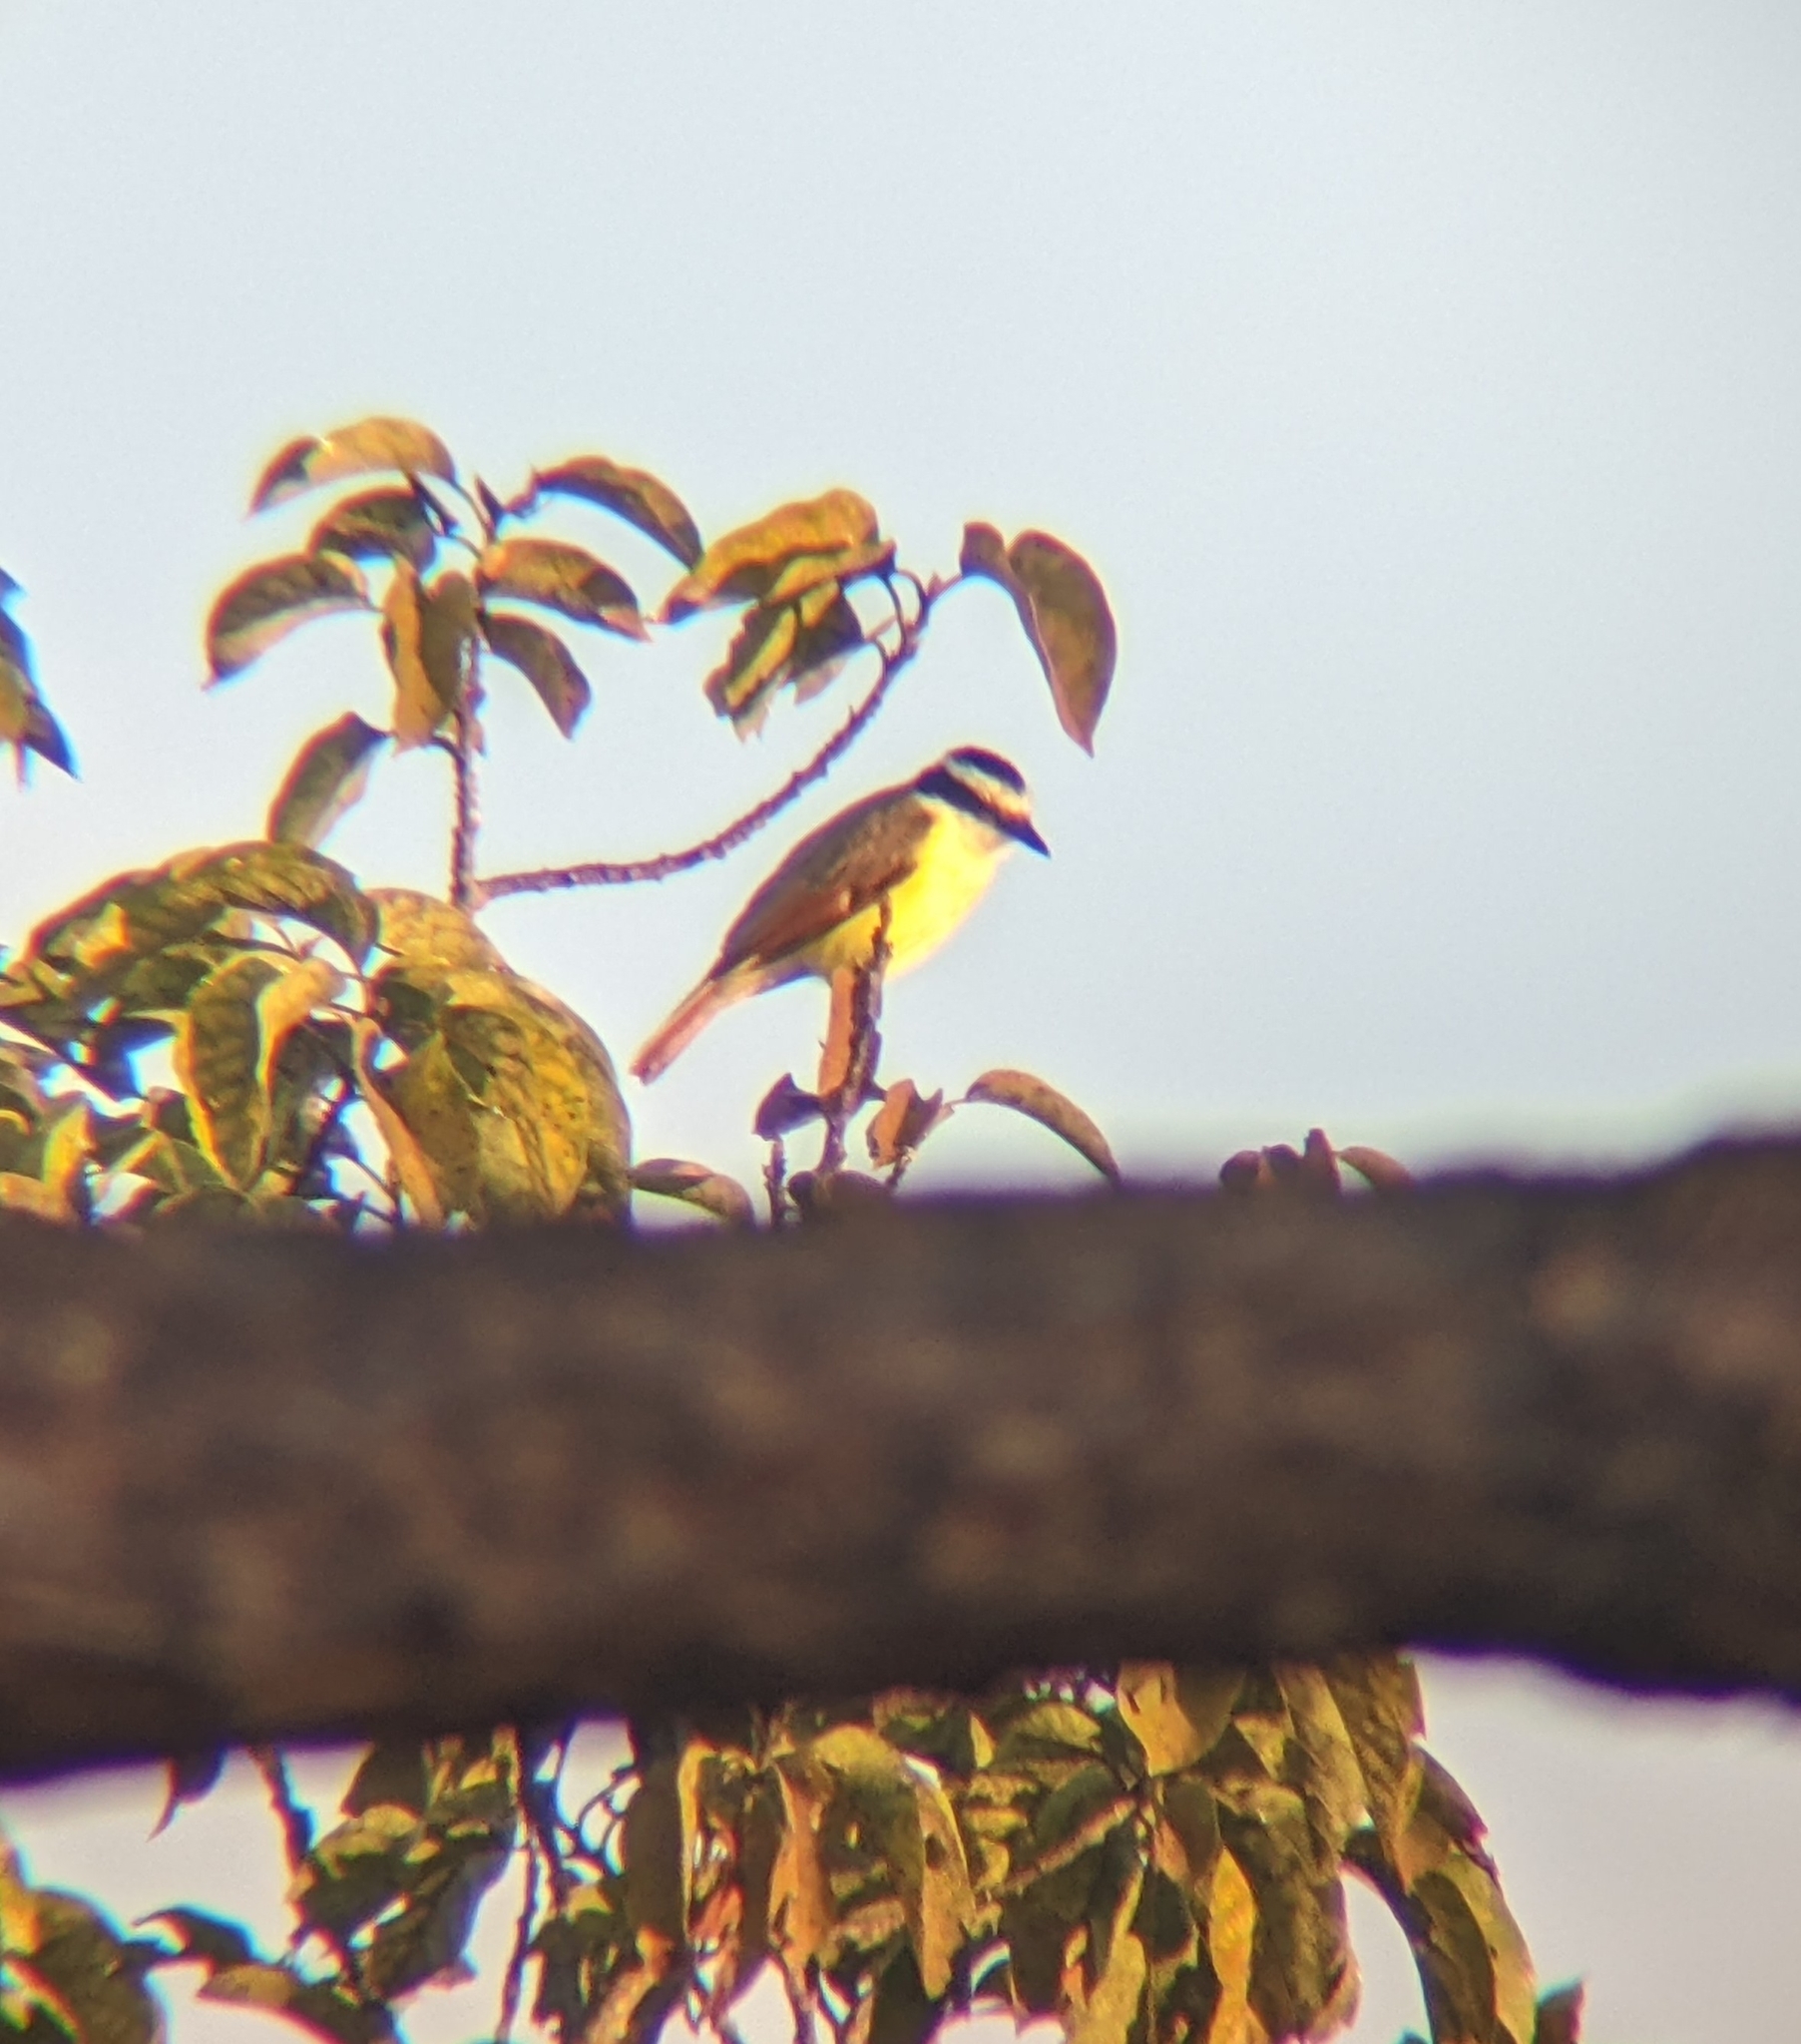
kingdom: Animalia
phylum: Chordata
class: Aves
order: Passeriformes
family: Tyrannidae
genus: Pitangus
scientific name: Pitangus sulphuratus
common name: Great kiskadee
